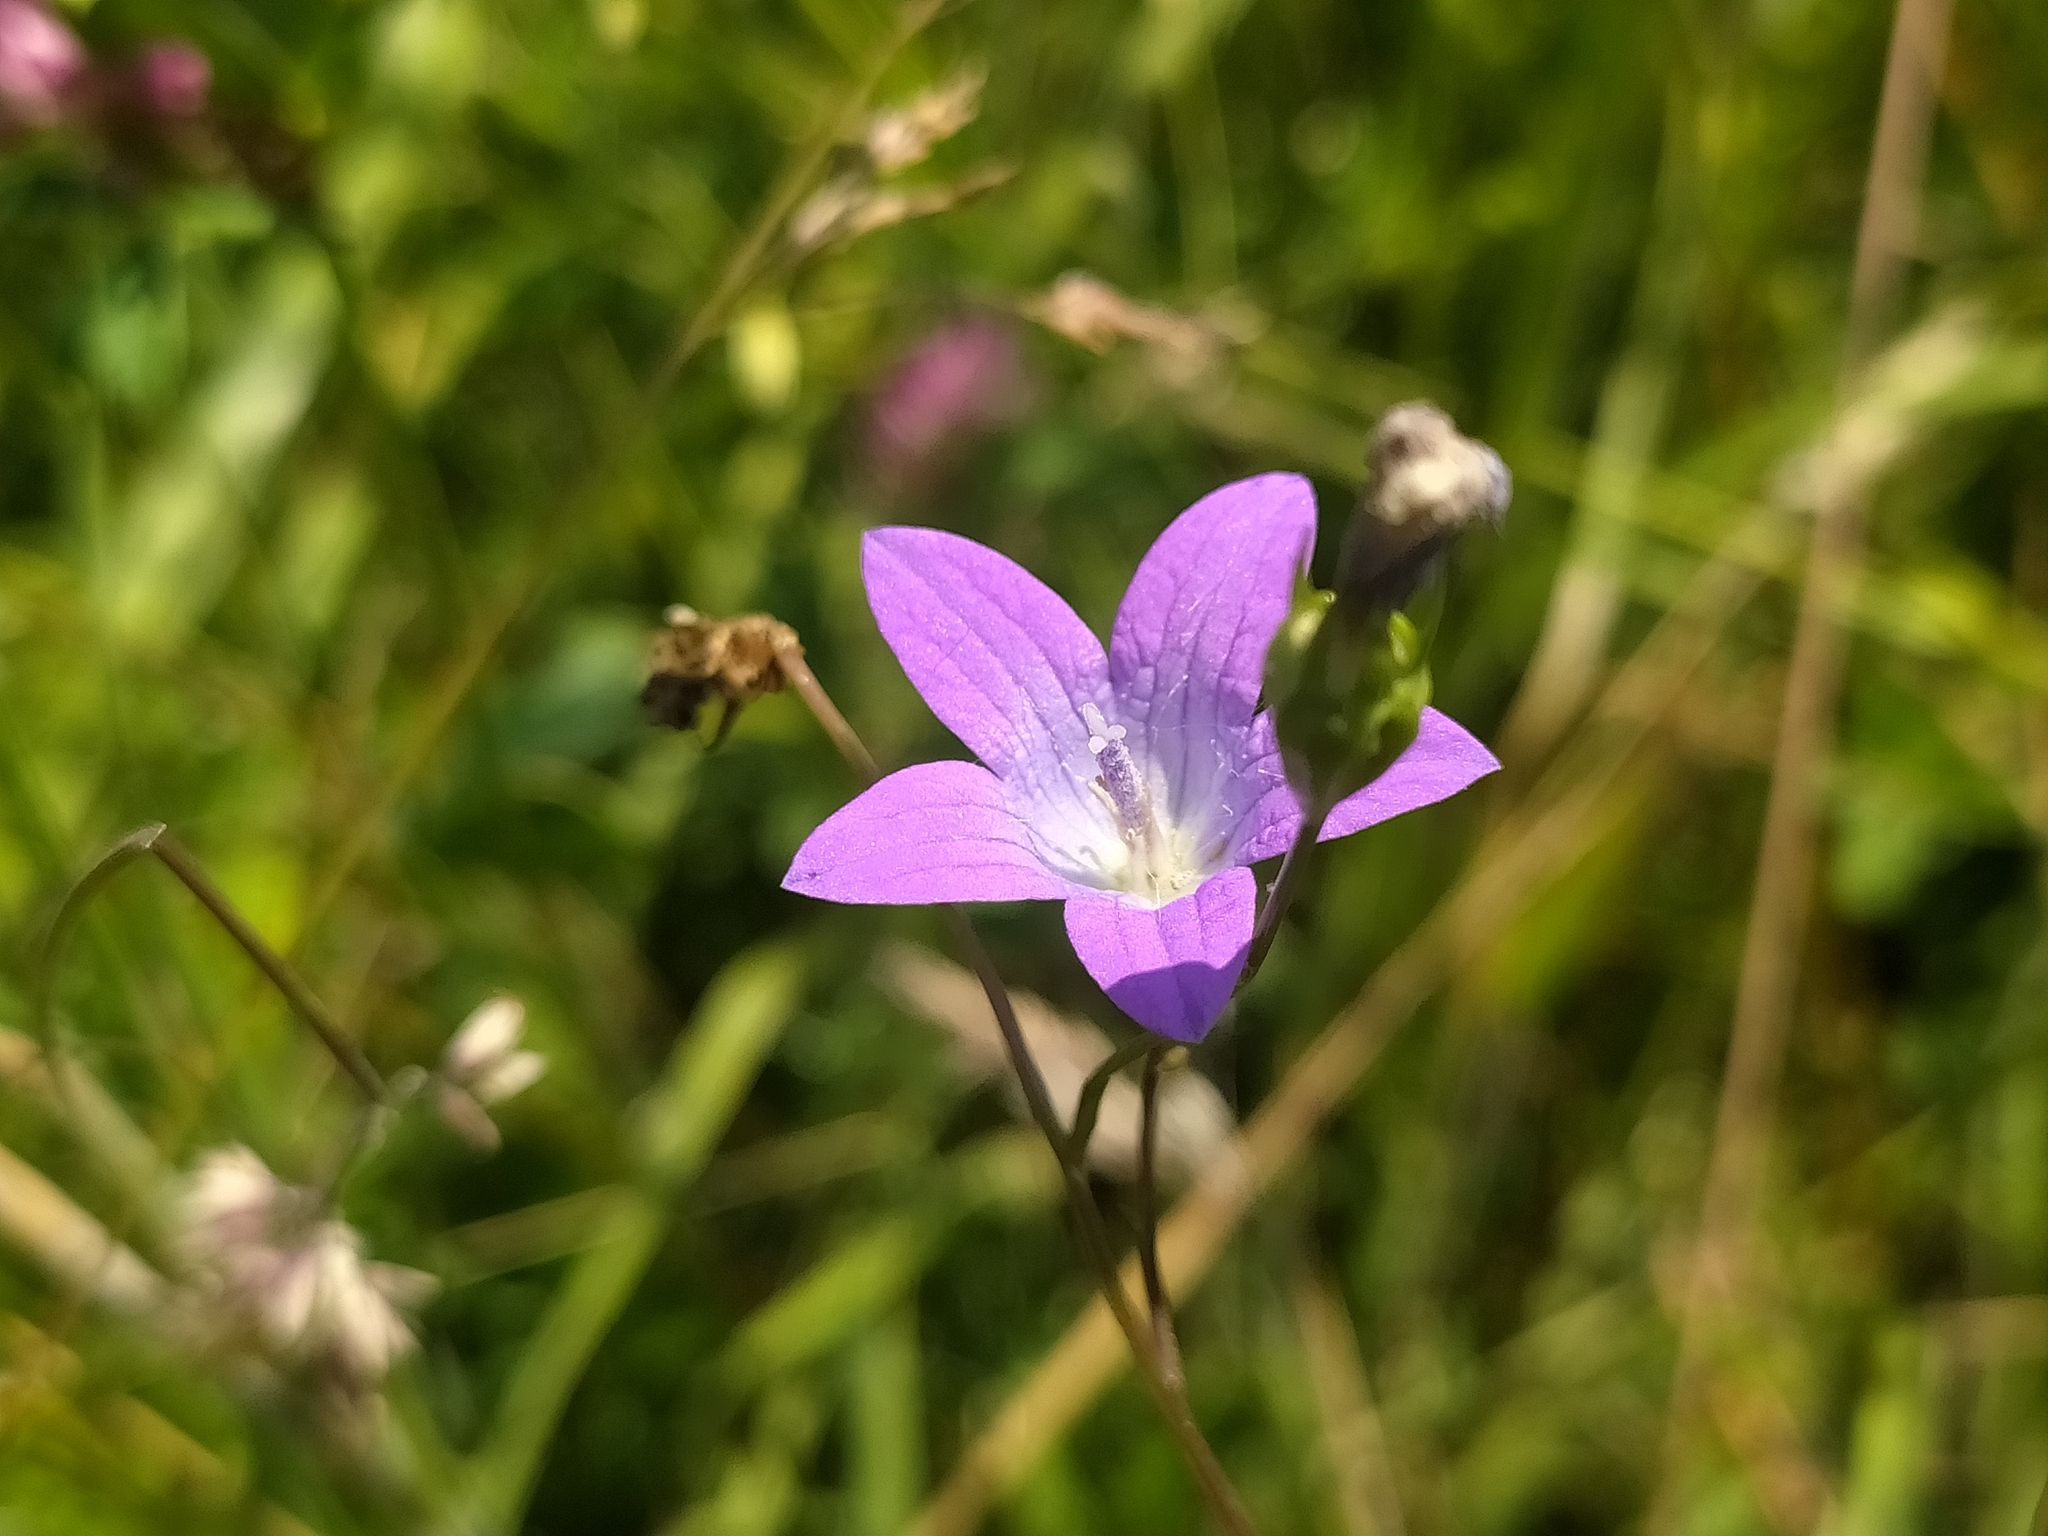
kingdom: Plantae
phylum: Tracheophyta
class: Magnoliopsida
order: Asterales
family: Campanulaceae
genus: Campanula
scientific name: Campanula patula
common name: Spreading bellflower
